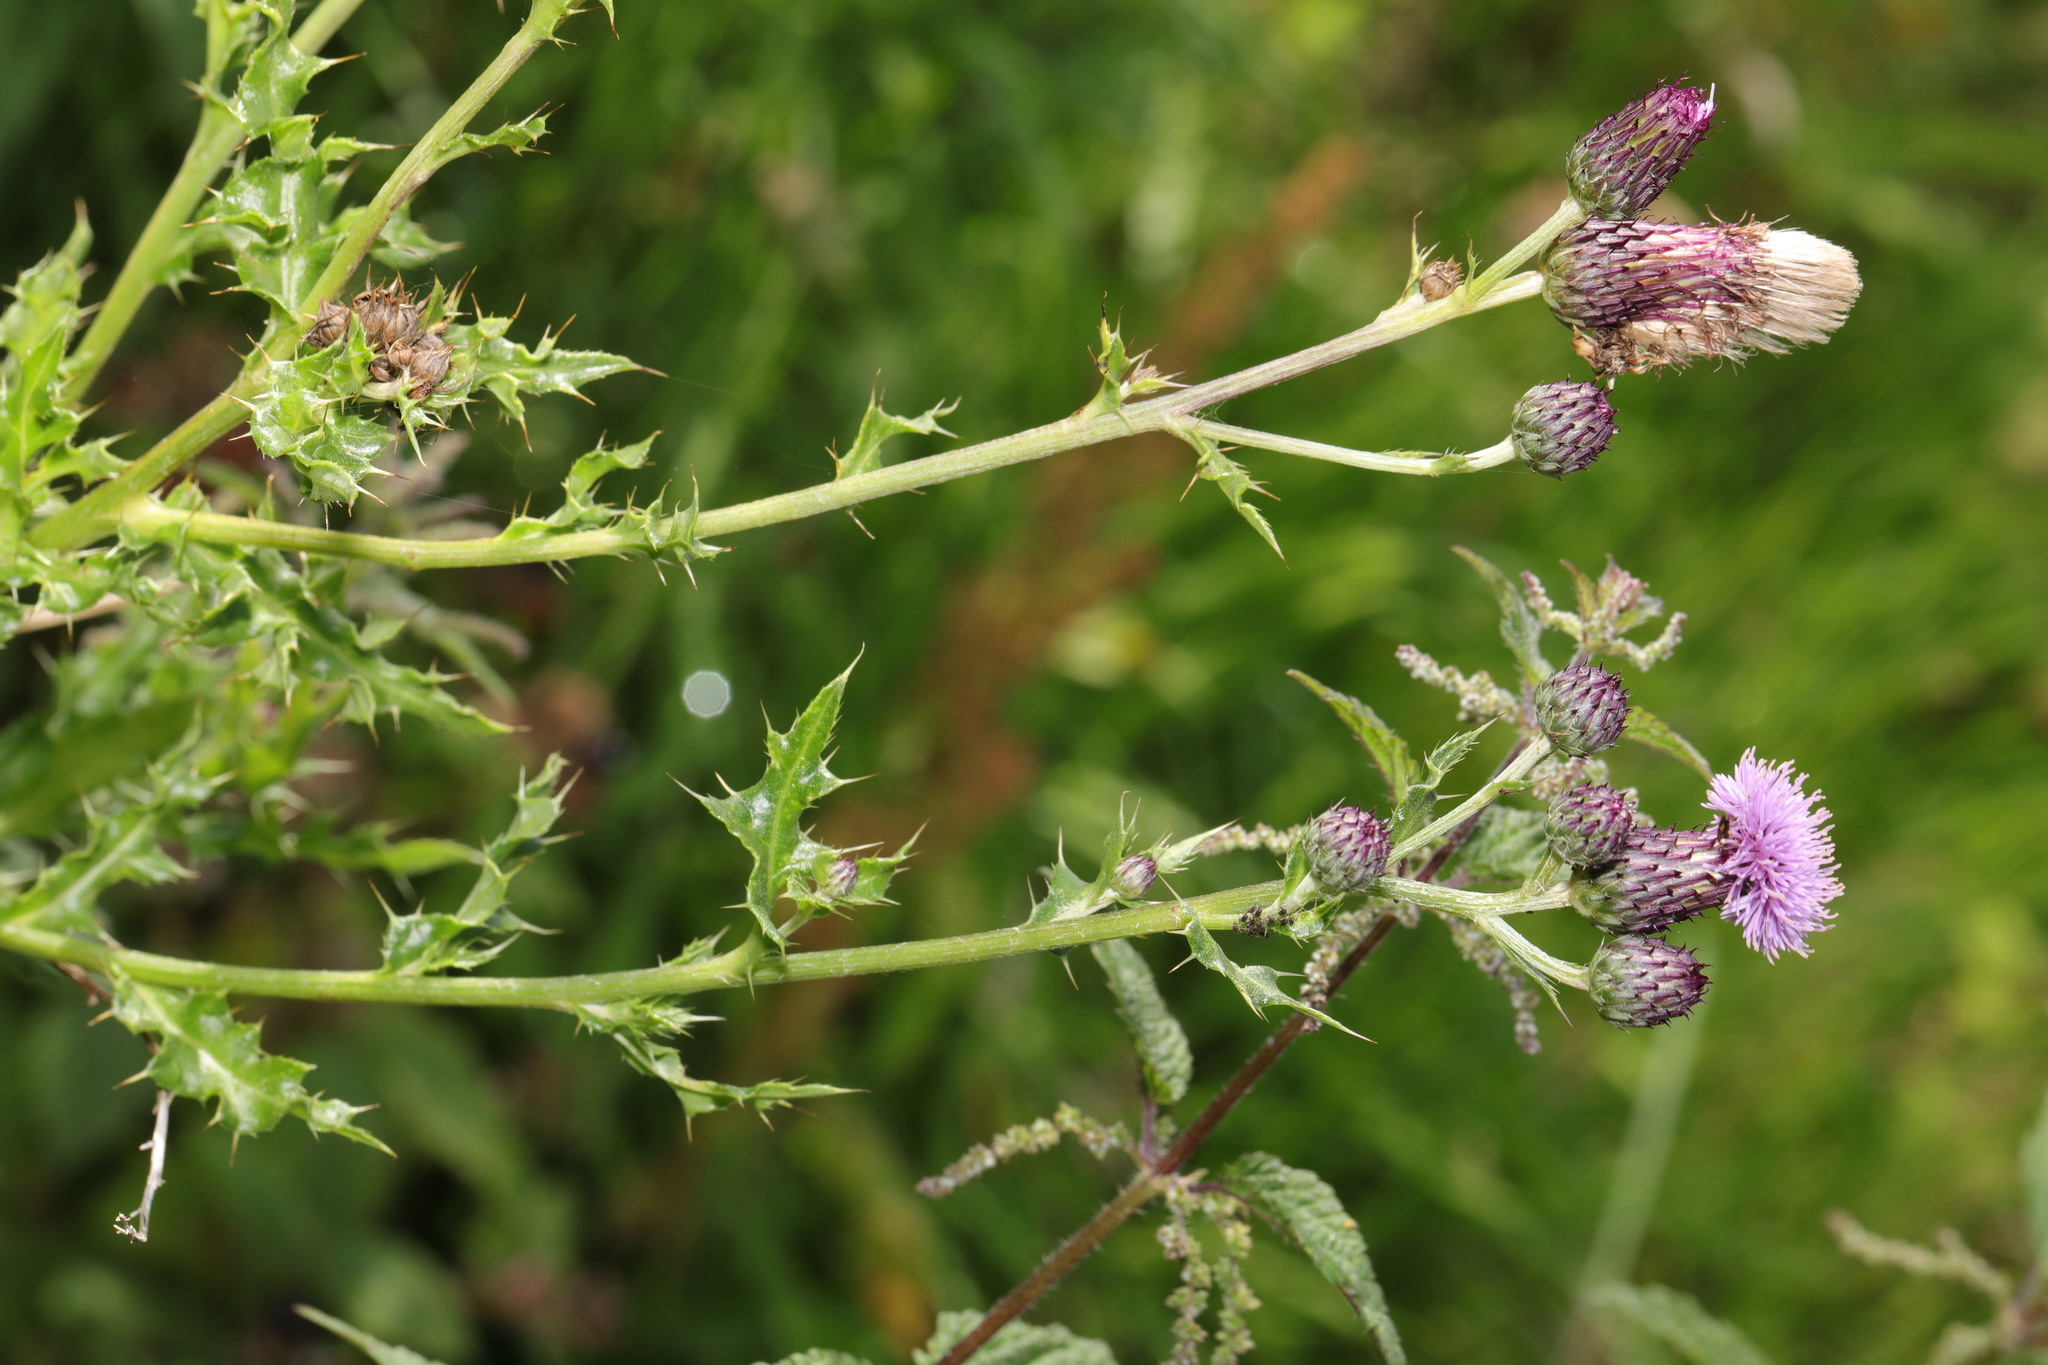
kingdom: Plantae
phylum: Tracheophyta
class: Magnoliopsida
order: Asterales
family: Asteraceae
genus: Cirsium
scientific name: Cirsium arvense
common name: Creeping thistle
